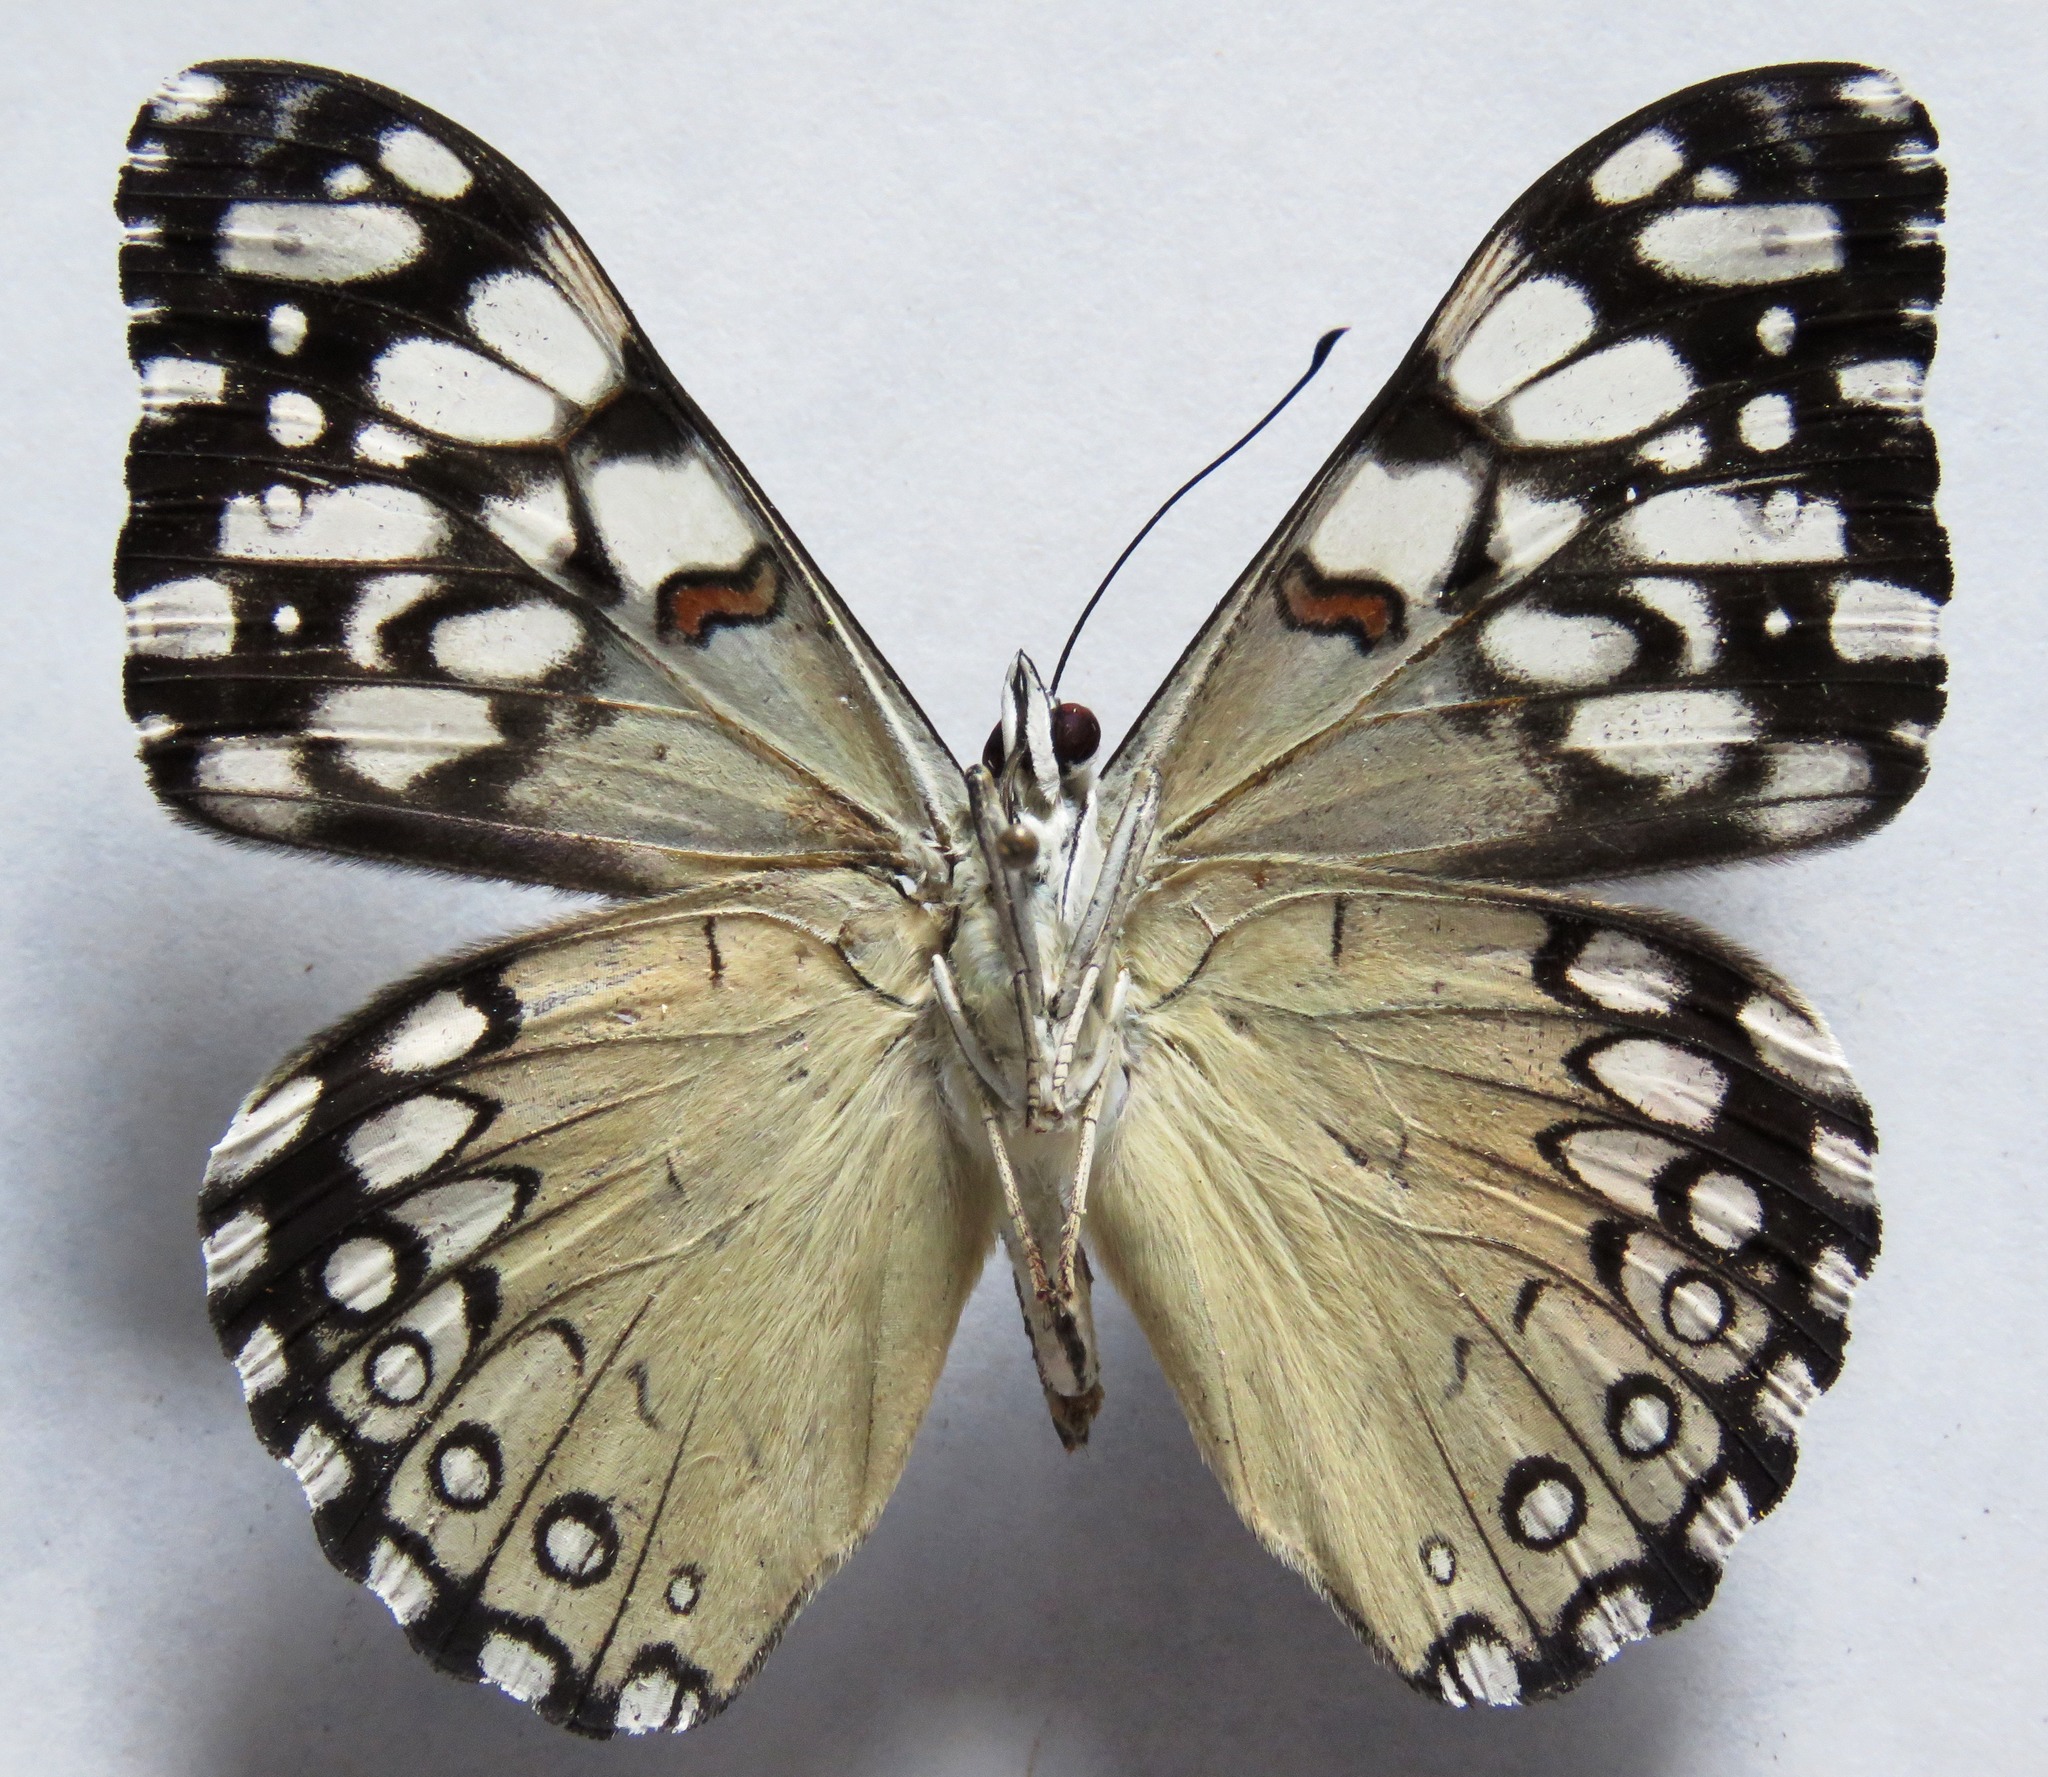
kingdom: Animalia
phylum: Arthropoda
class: Insecta
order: Lepidoptera
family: Nymphalidae
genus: Hamadryas
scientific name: Hamadryas feronia
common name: Variable cracker
